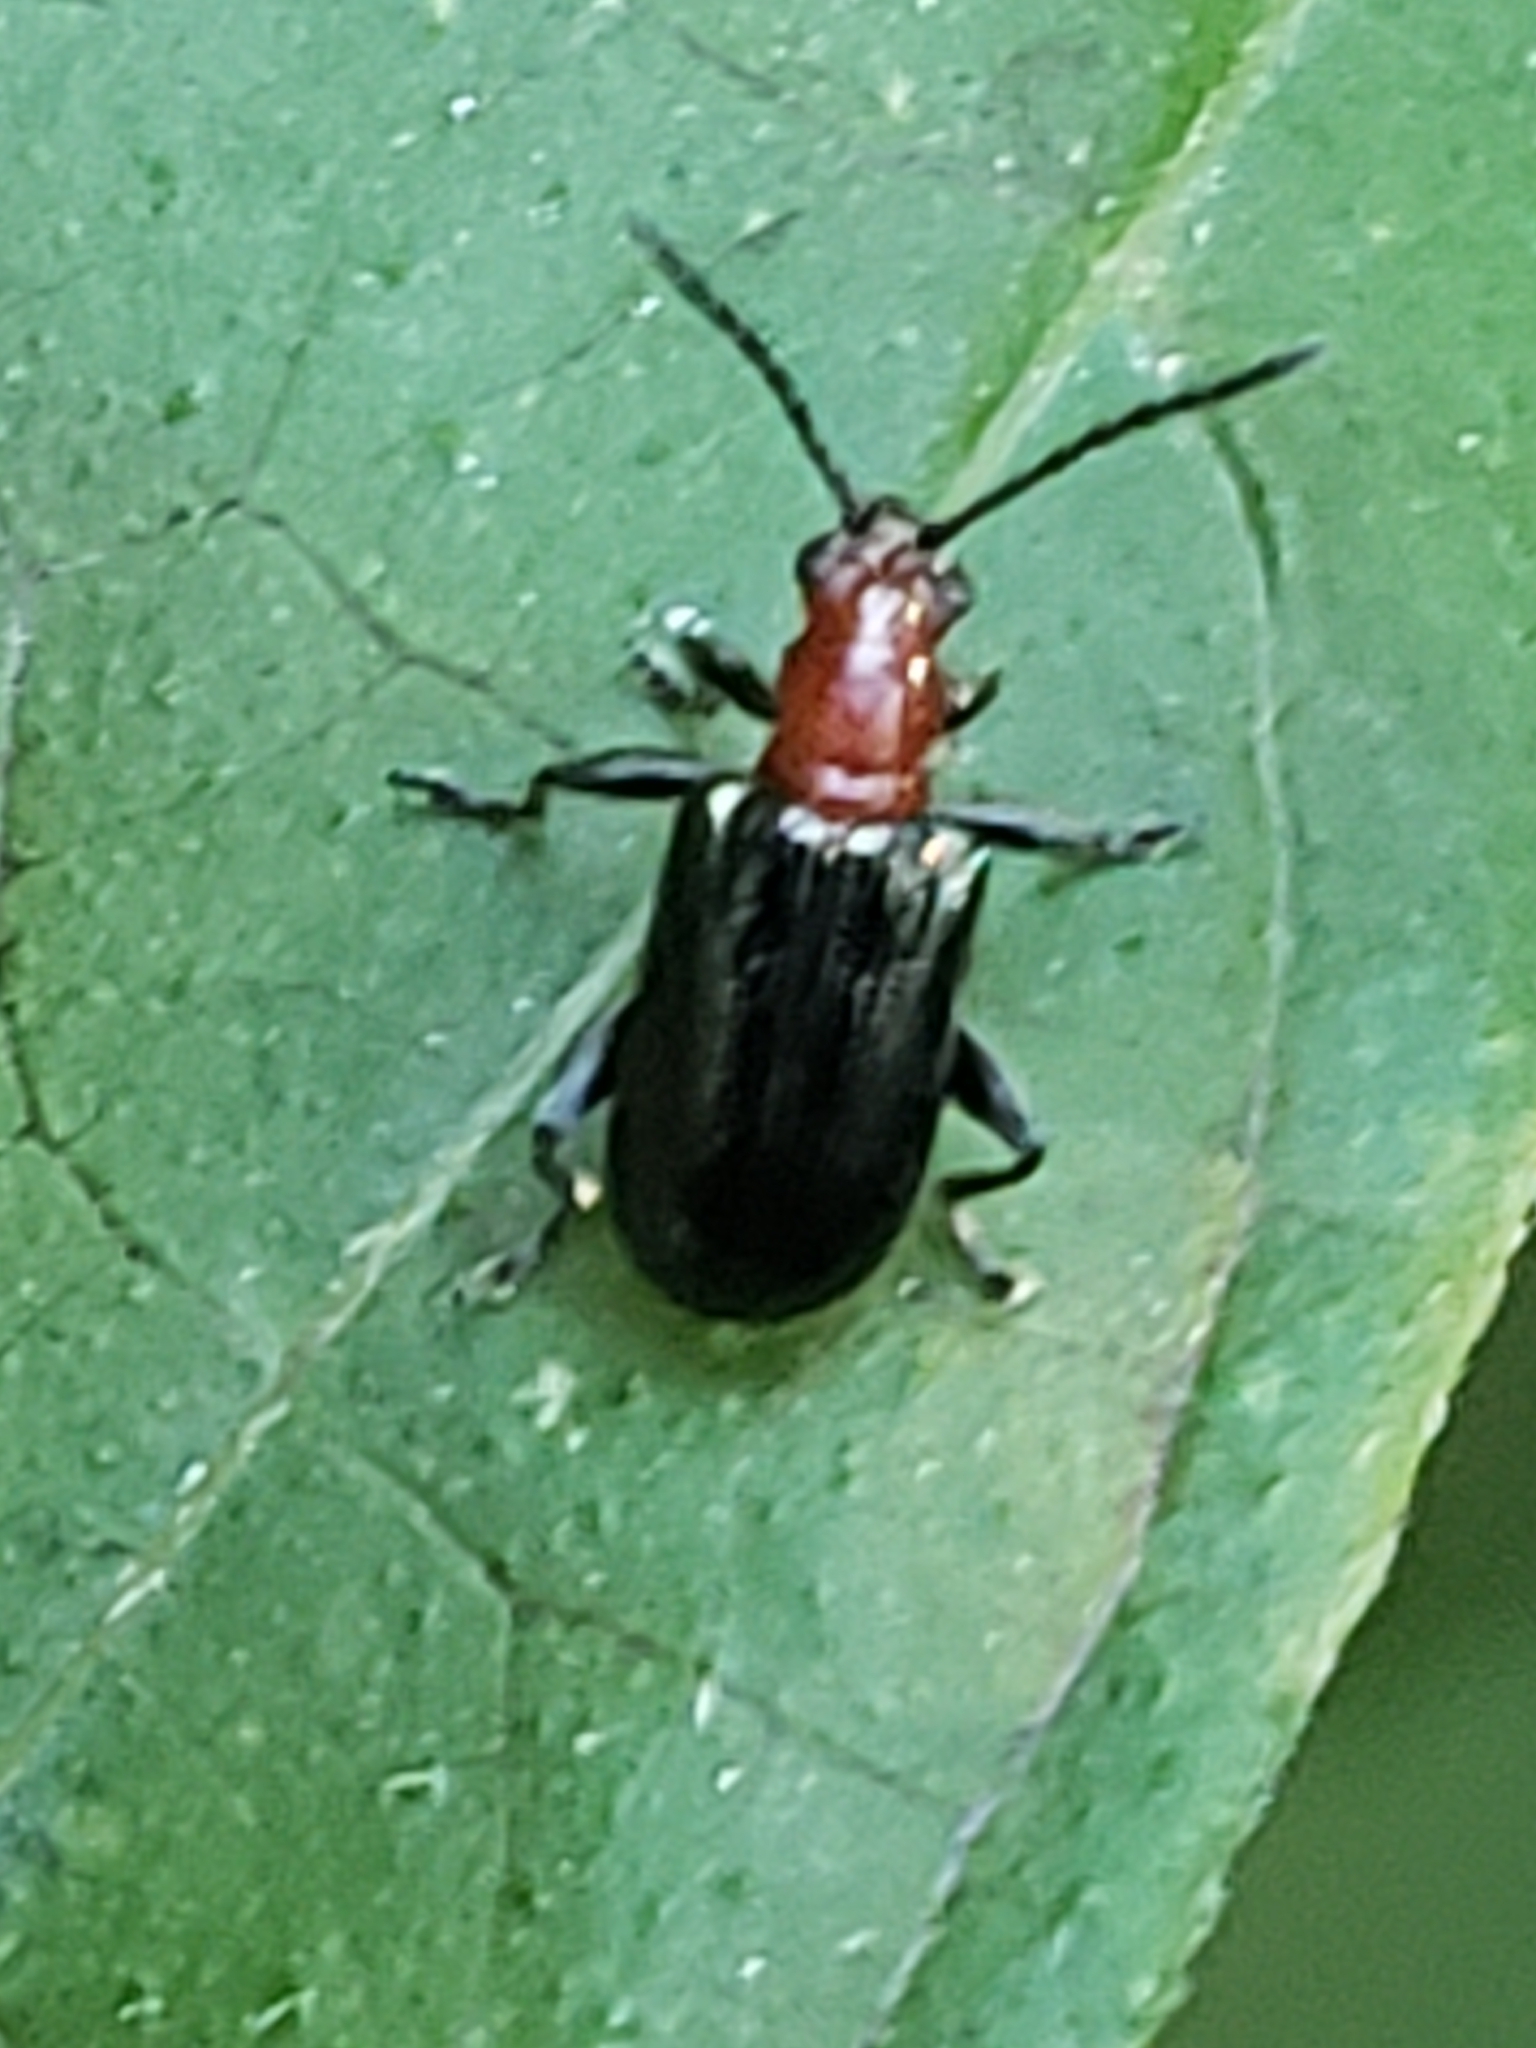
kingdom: Animalia
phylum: Arthropoda
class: Insecta
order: Coleoptera
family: Chrysomelidae
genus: Oulema
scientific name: Oulema sayi
